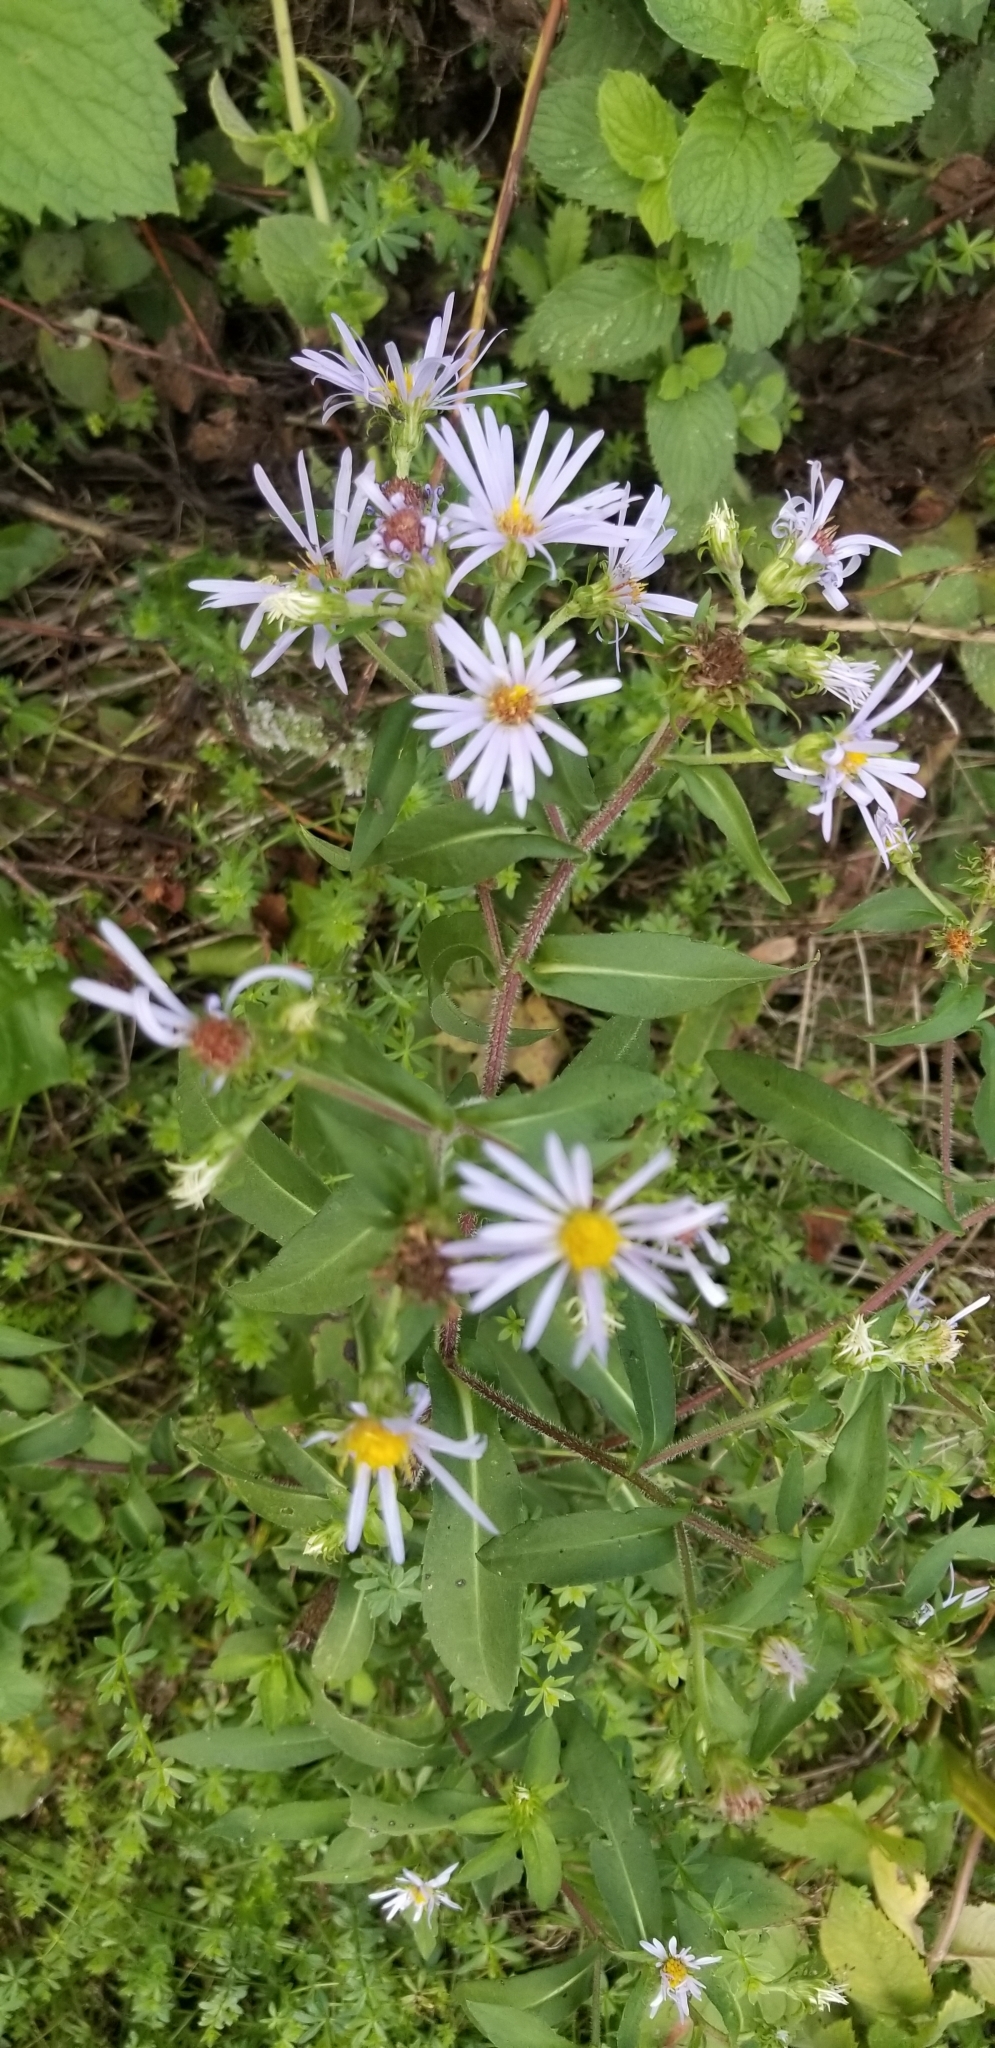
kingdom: Plantae
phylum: Tracheophyta
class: Magnoliopsida
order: Asterales
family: Asteraceae
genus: Symphyotrichum
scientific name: Symphyotrichum puniceum
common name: Bog aster
